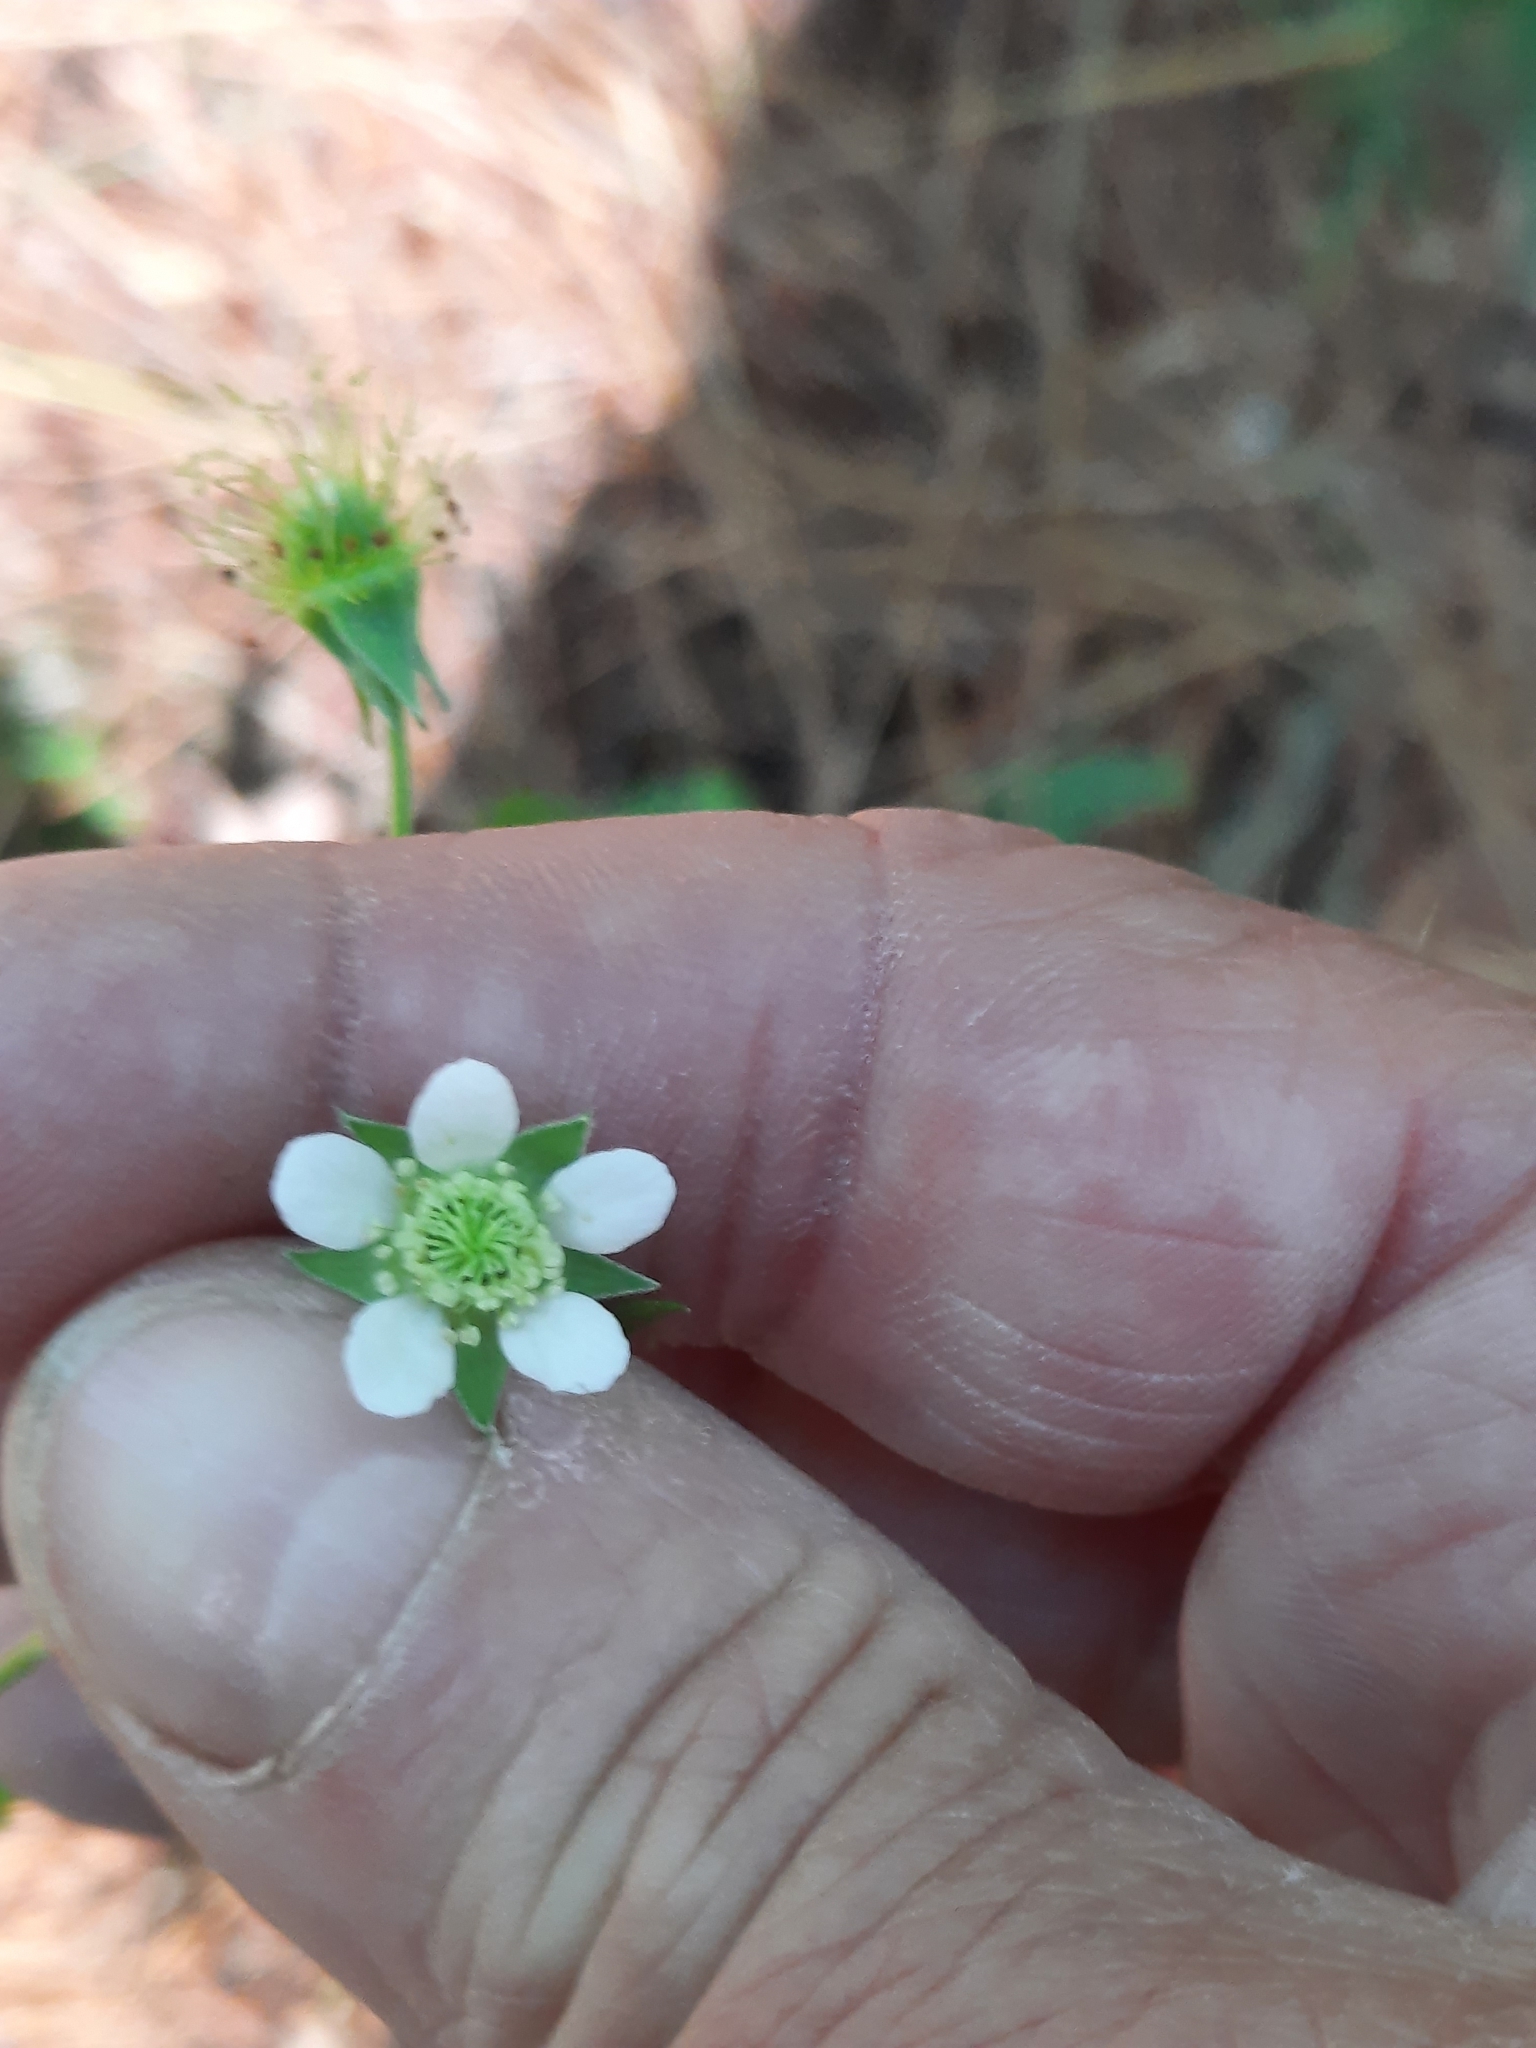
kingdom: Plantae
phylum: Tracheophyta
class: Magnoliopsida
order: Rosales
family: Rosaceae
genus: Geum
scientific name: Geum canadense
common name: White avens
